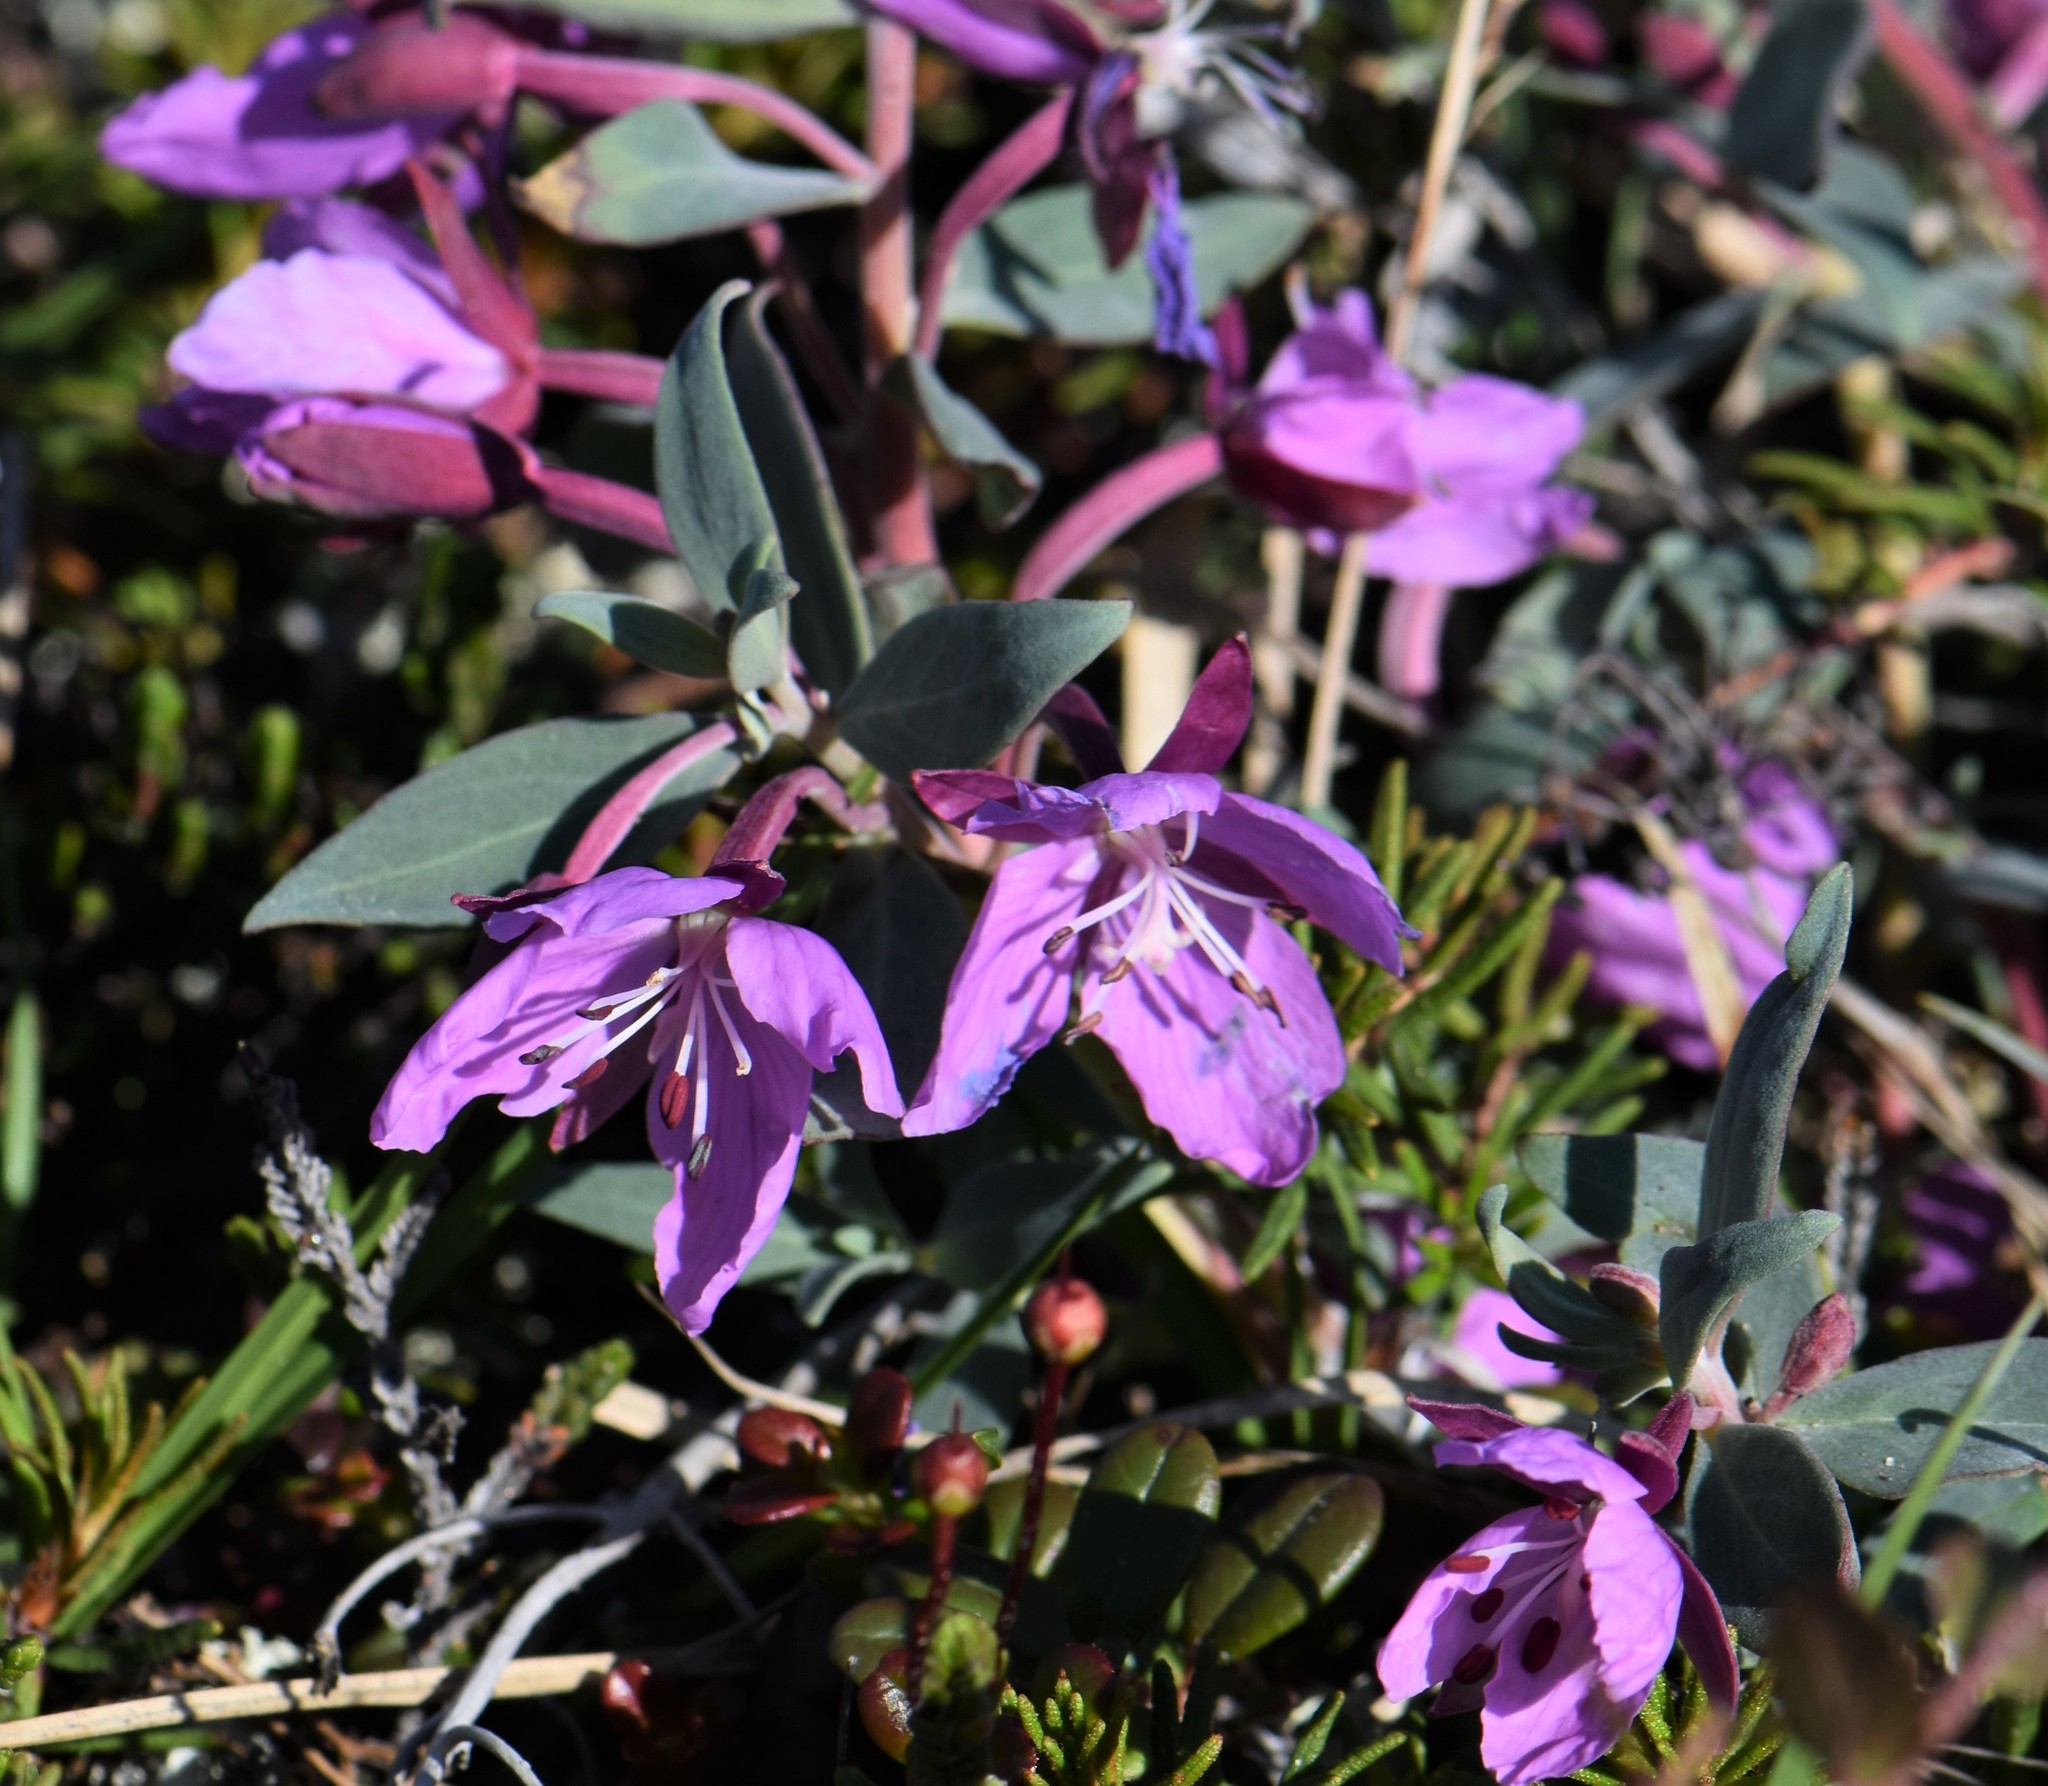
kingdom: Plantae
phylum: Tracheophyta
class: Magnoliopsida
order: Myrtales
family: Onagraceae
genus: Chamaenerion
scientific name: Chamaenerion latifolium
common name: Dwarf fireweed
